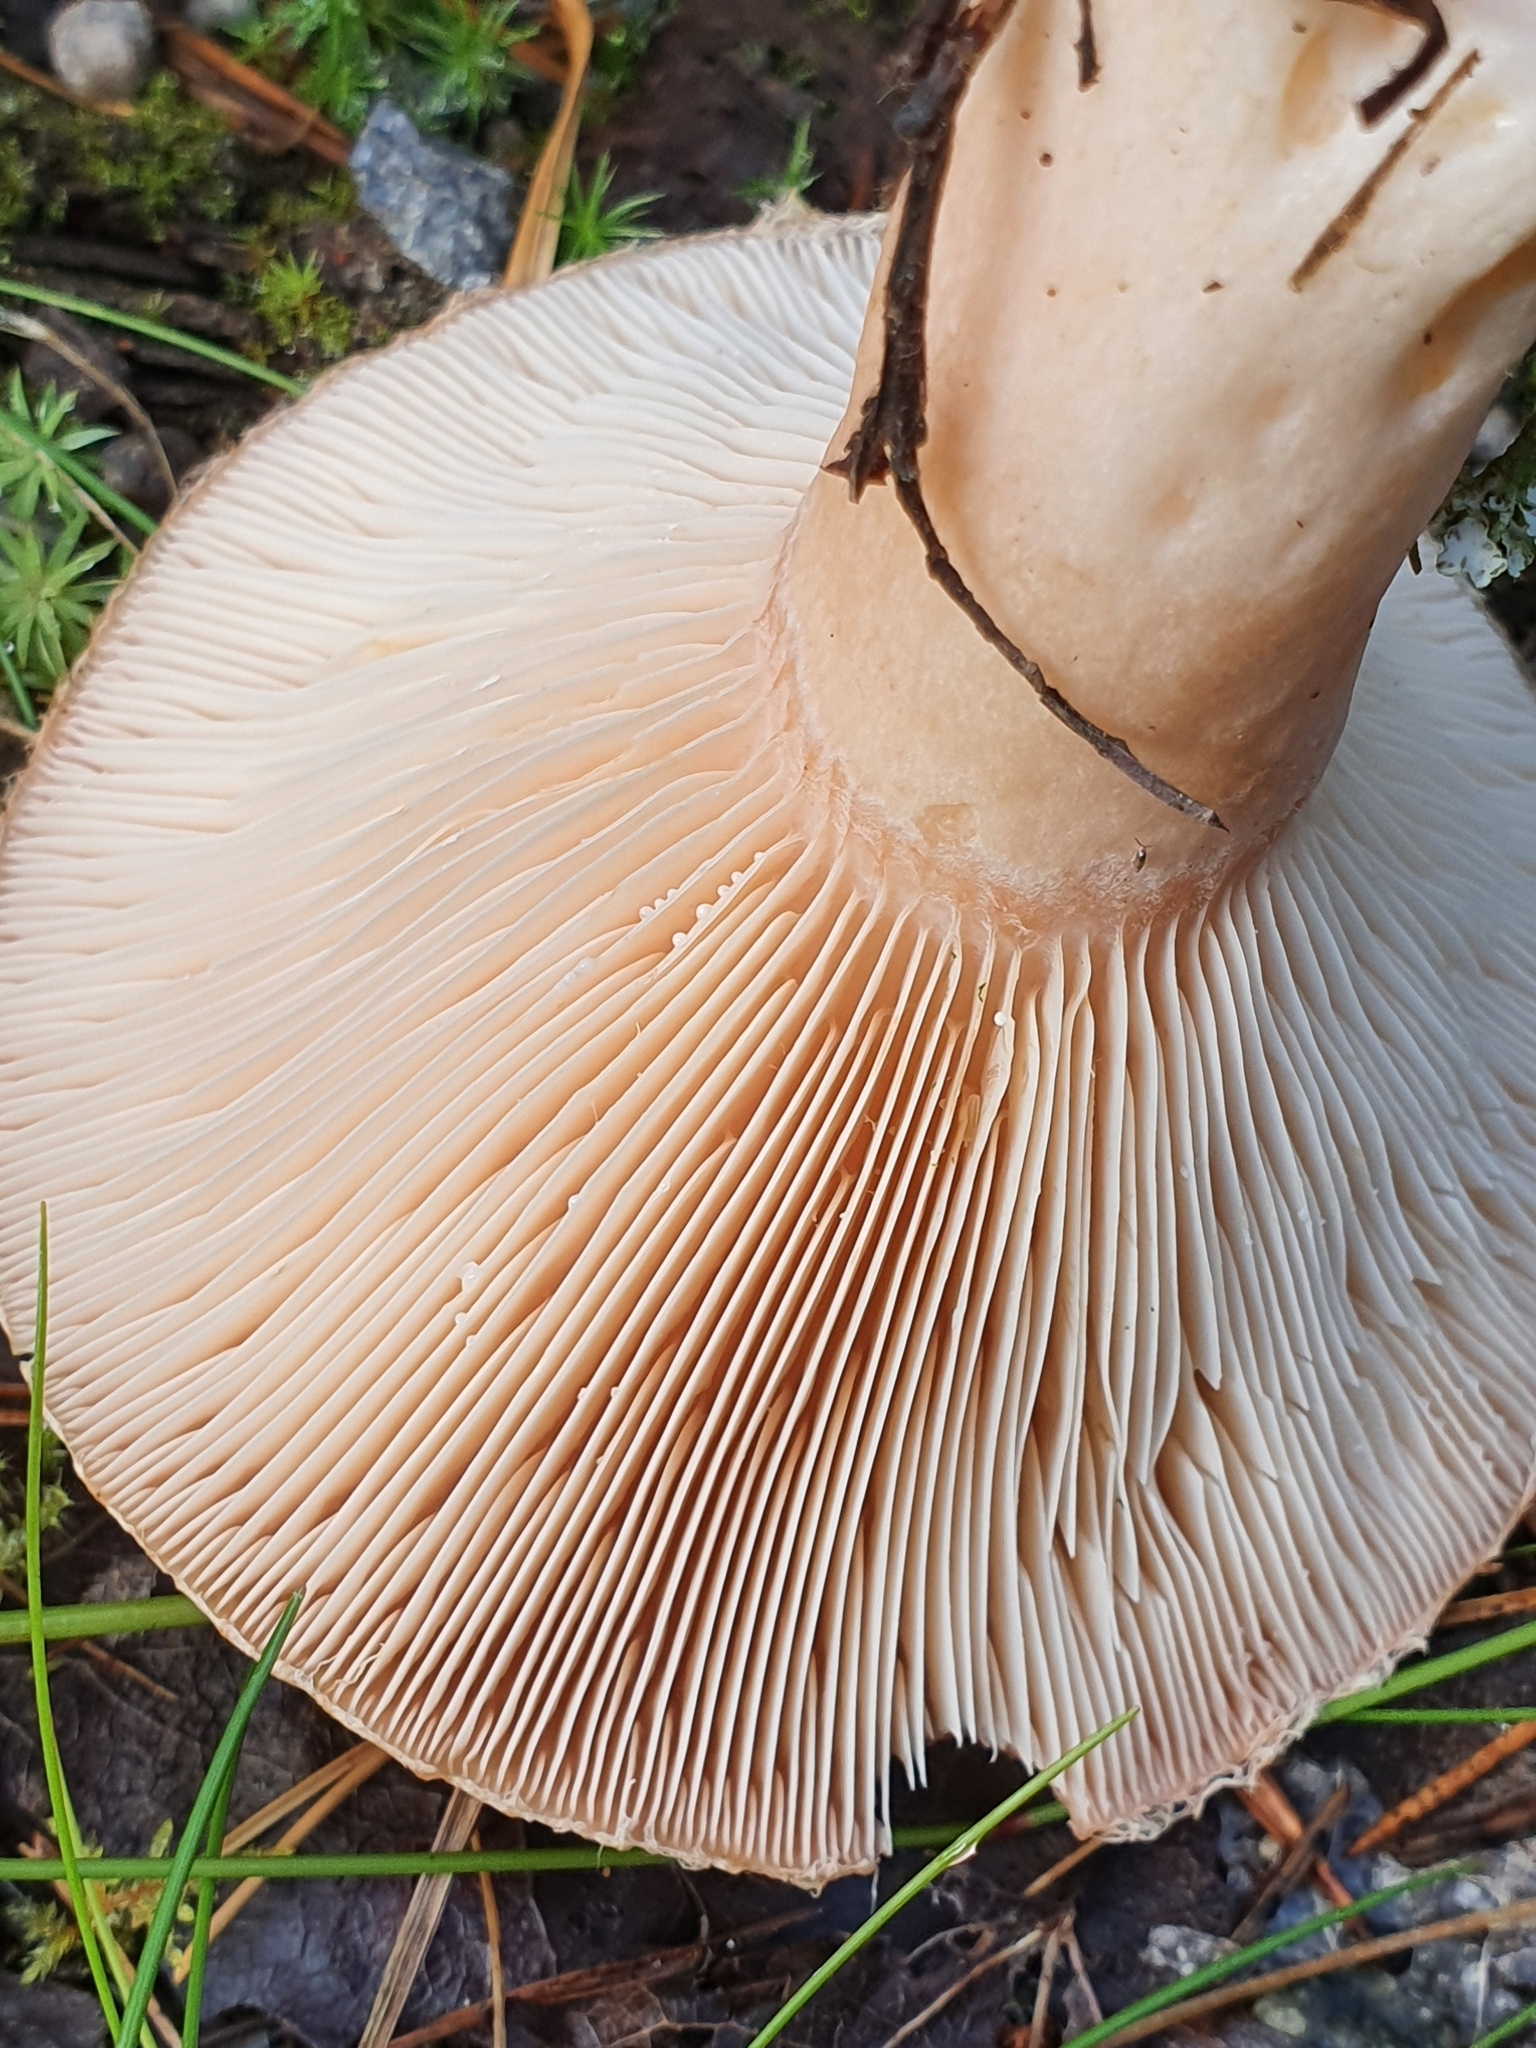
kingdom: Fungi
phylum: Basidiomycota
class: Agaricomycetes
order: Russulales
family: Russulaceae
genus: Lactarius
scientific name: Lactarius torminosus
